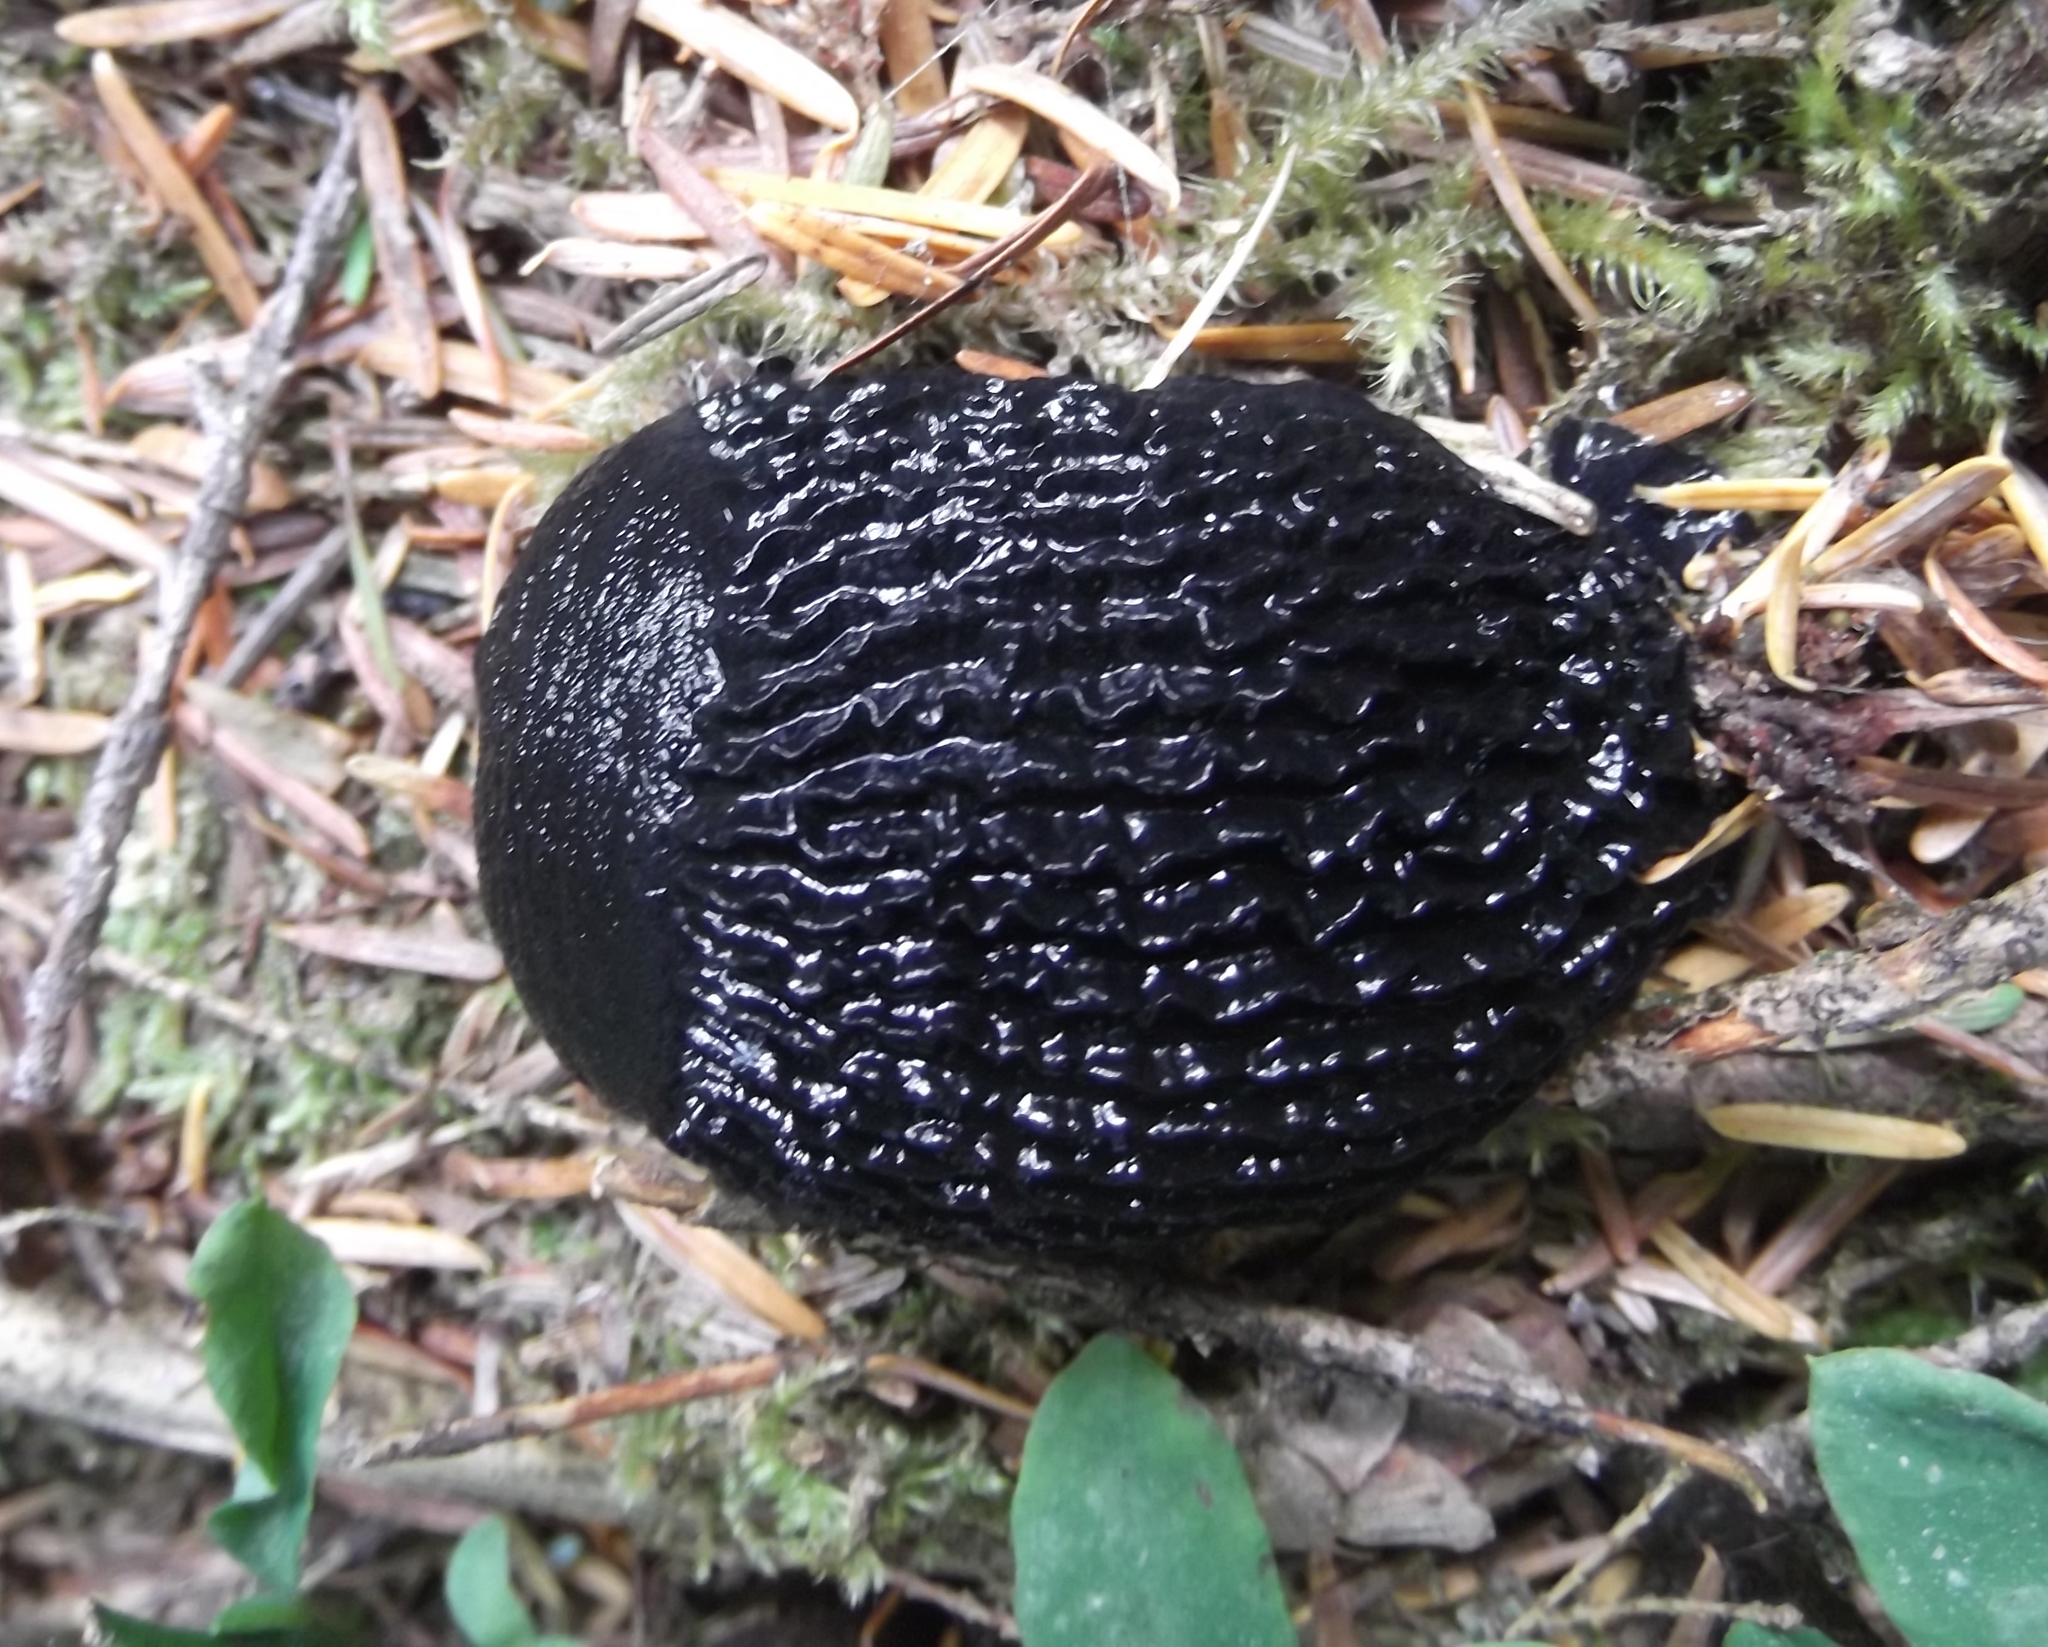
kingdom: Animalia
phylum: Mollusca
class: Gastropoda
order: Stylommatophora
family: Arionidae
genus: Arion
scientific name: Arion
